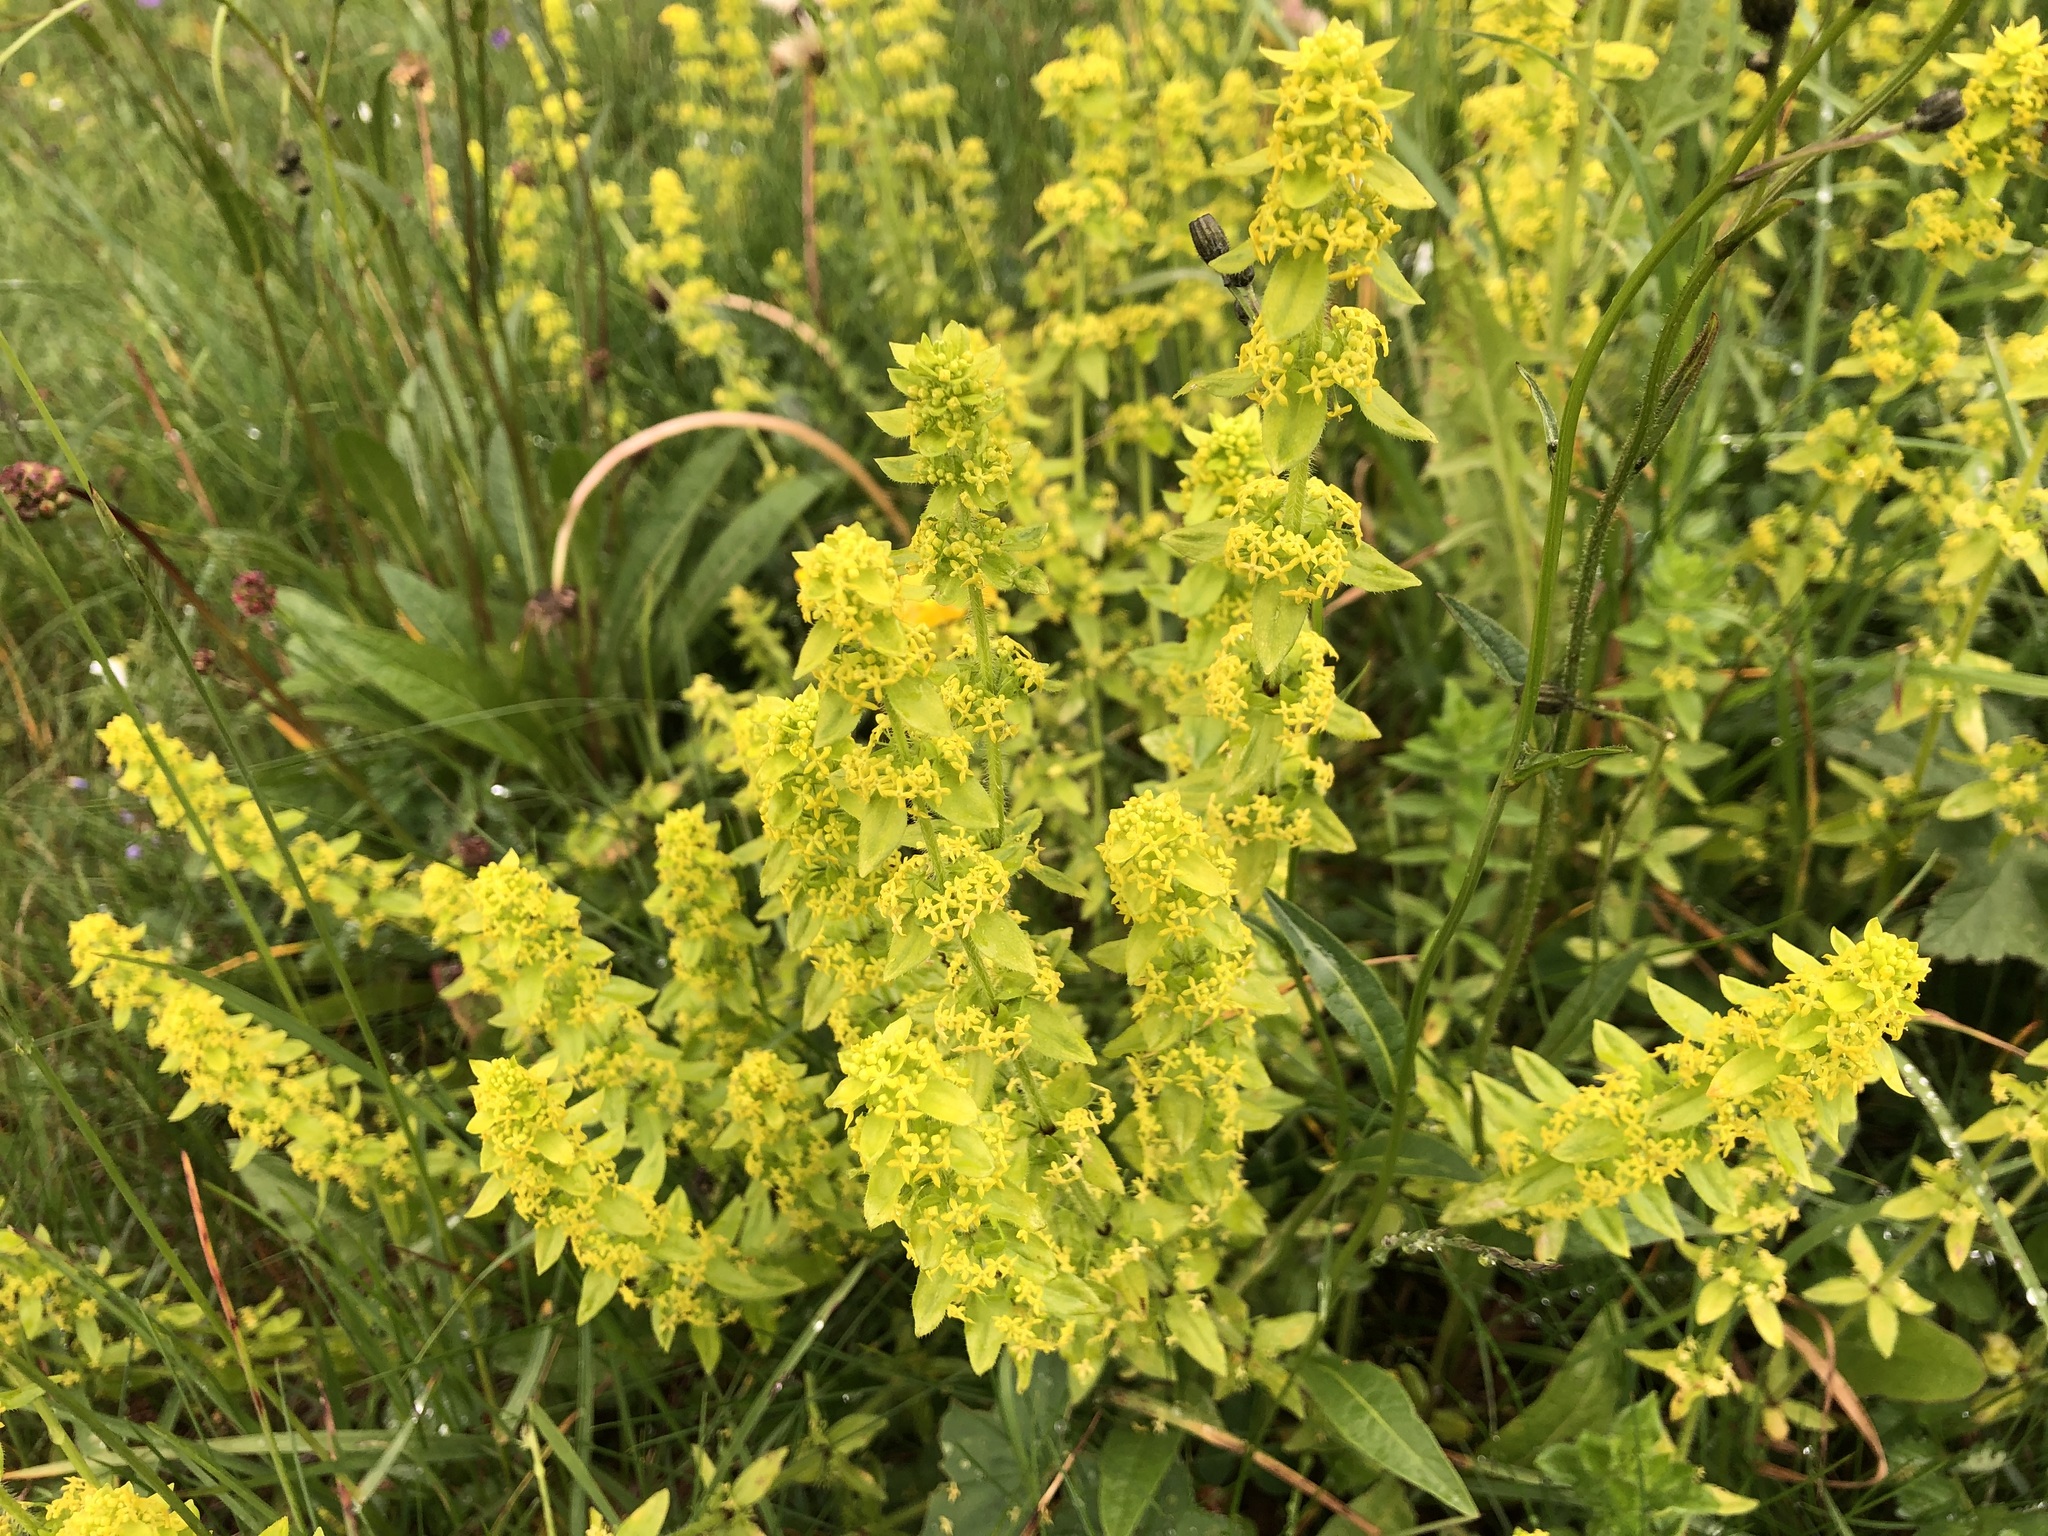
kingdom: Plantae
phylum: Tracheophyta
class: Magnoliopsida
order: Gentianales
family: Rubiaceae
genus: Cruciata
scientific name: Cruciata laevipes
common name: Crosswort
